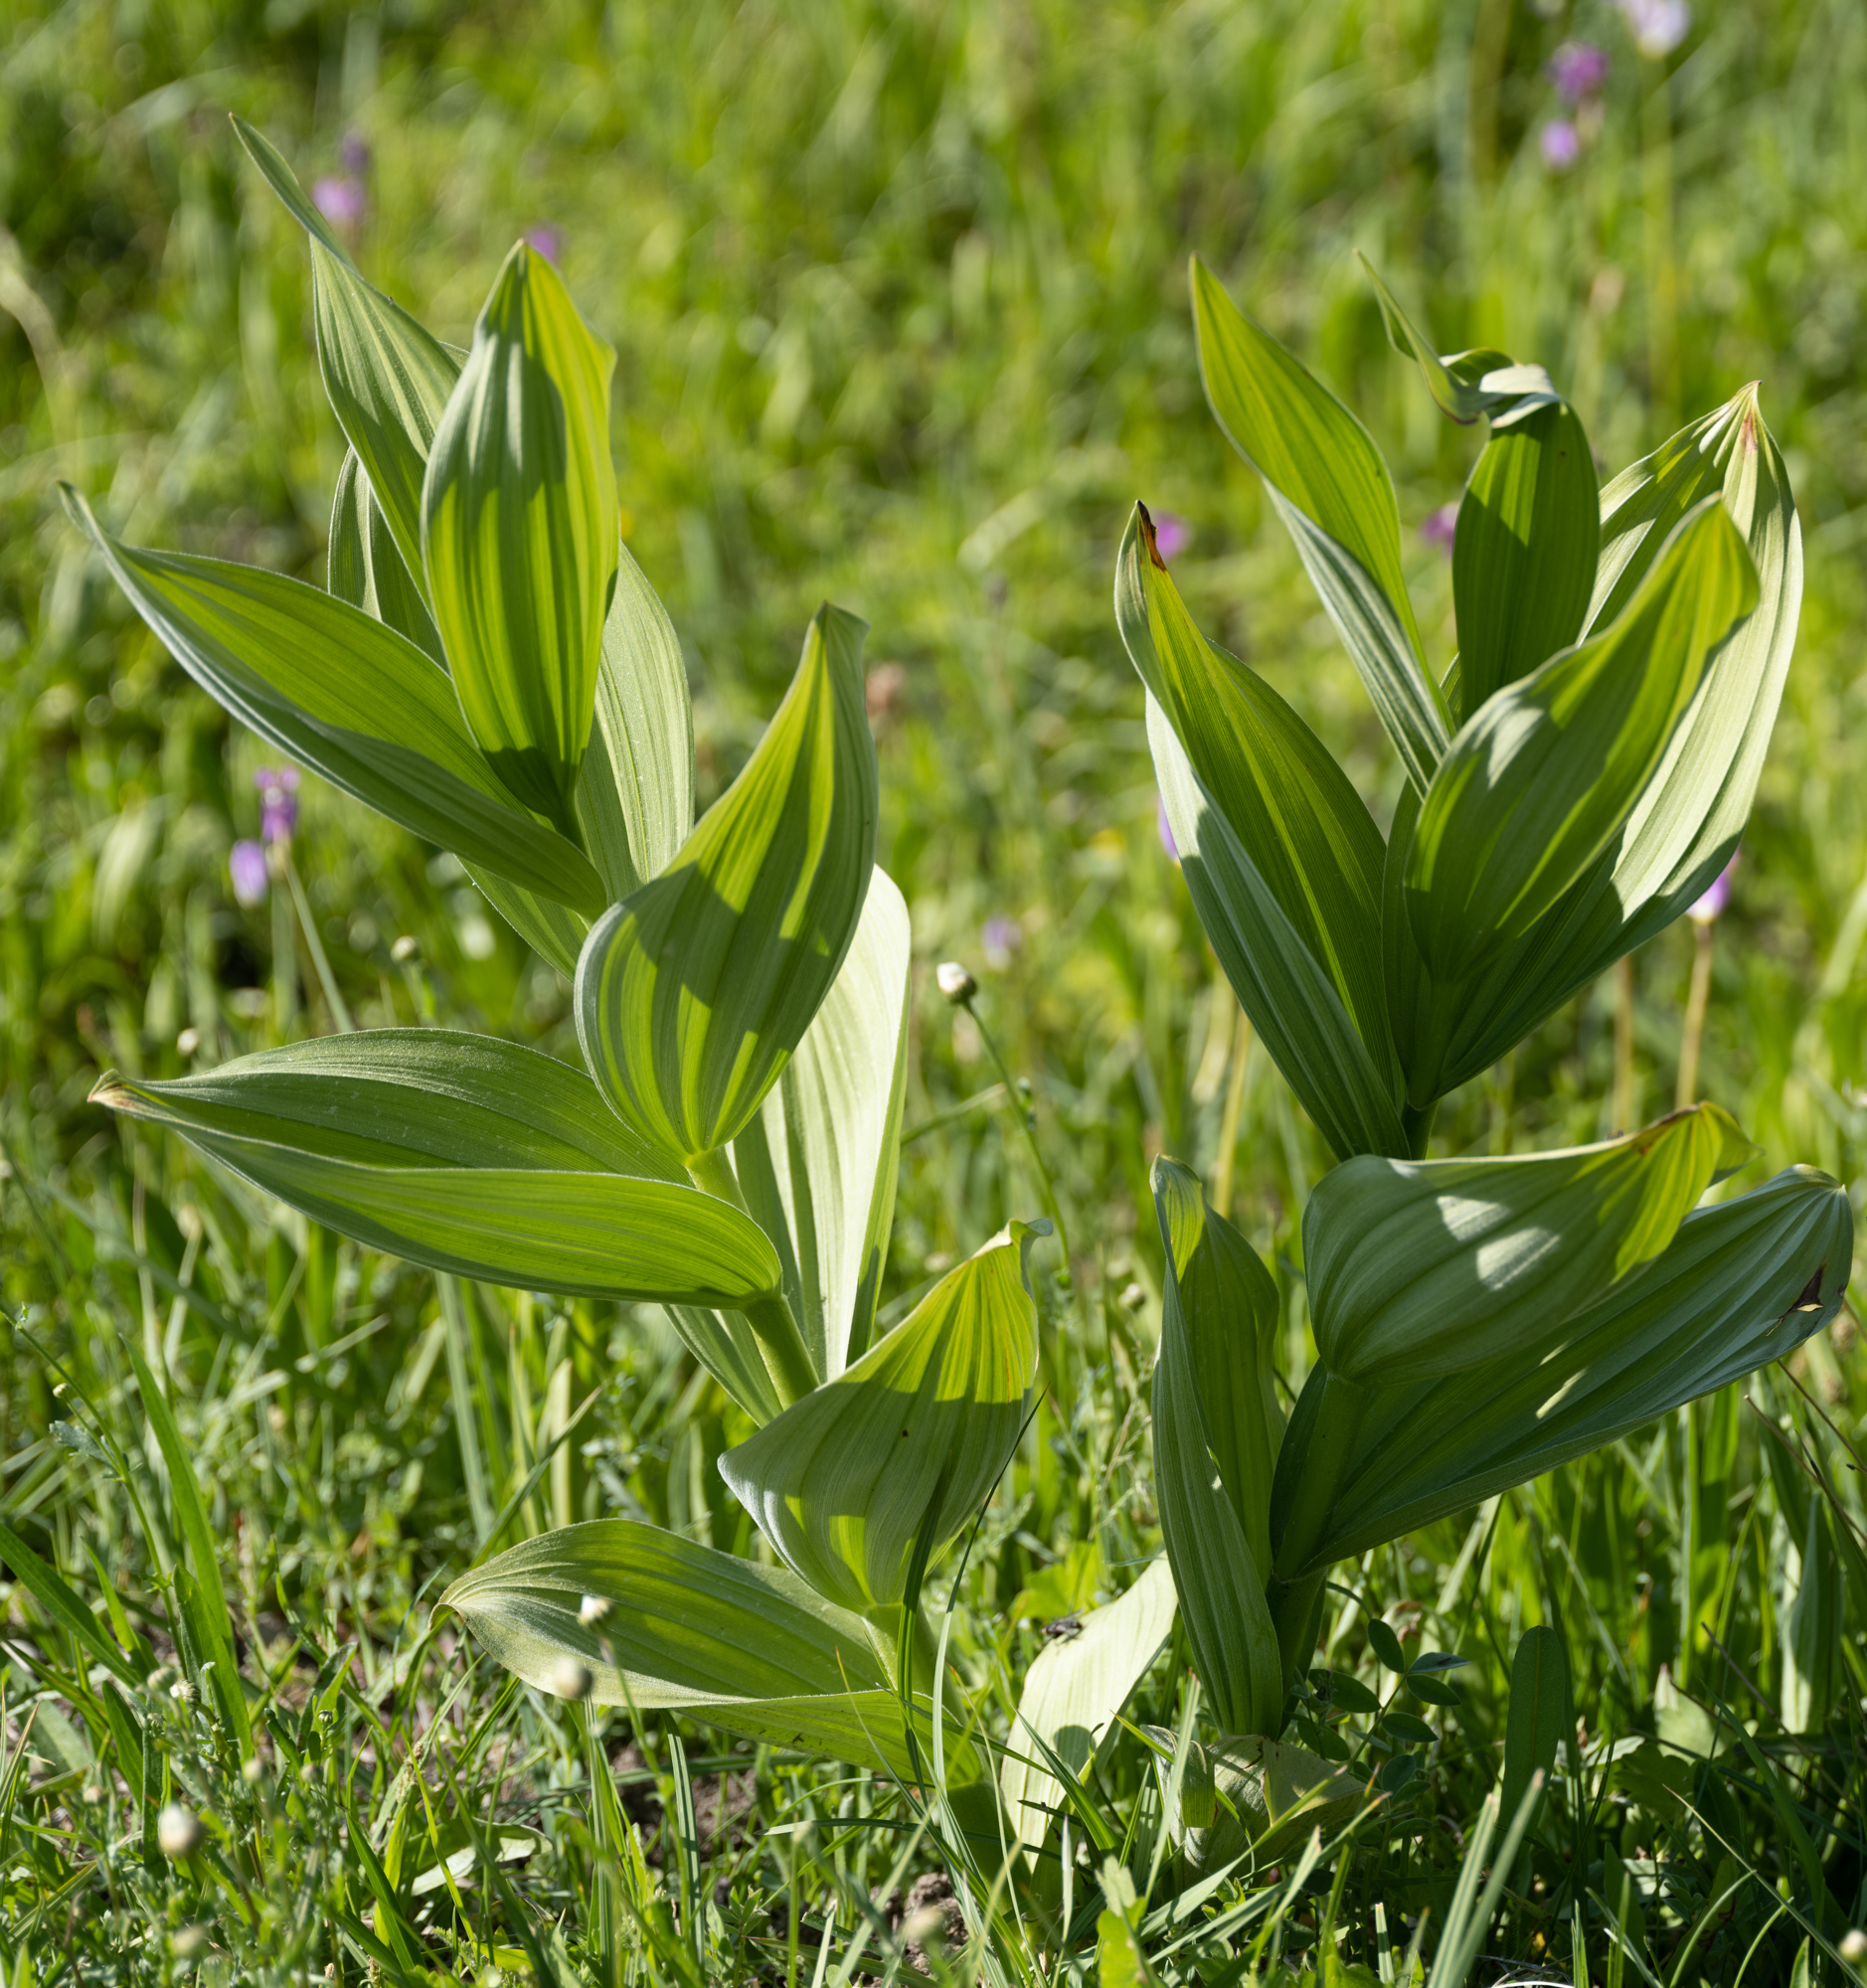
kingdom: Plantae
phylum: Tracheophyta
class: Liliopsida
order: Liliales
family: Melanthiaceae
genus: Veratrum
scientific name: Veratrum californicum
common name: California veratrum
